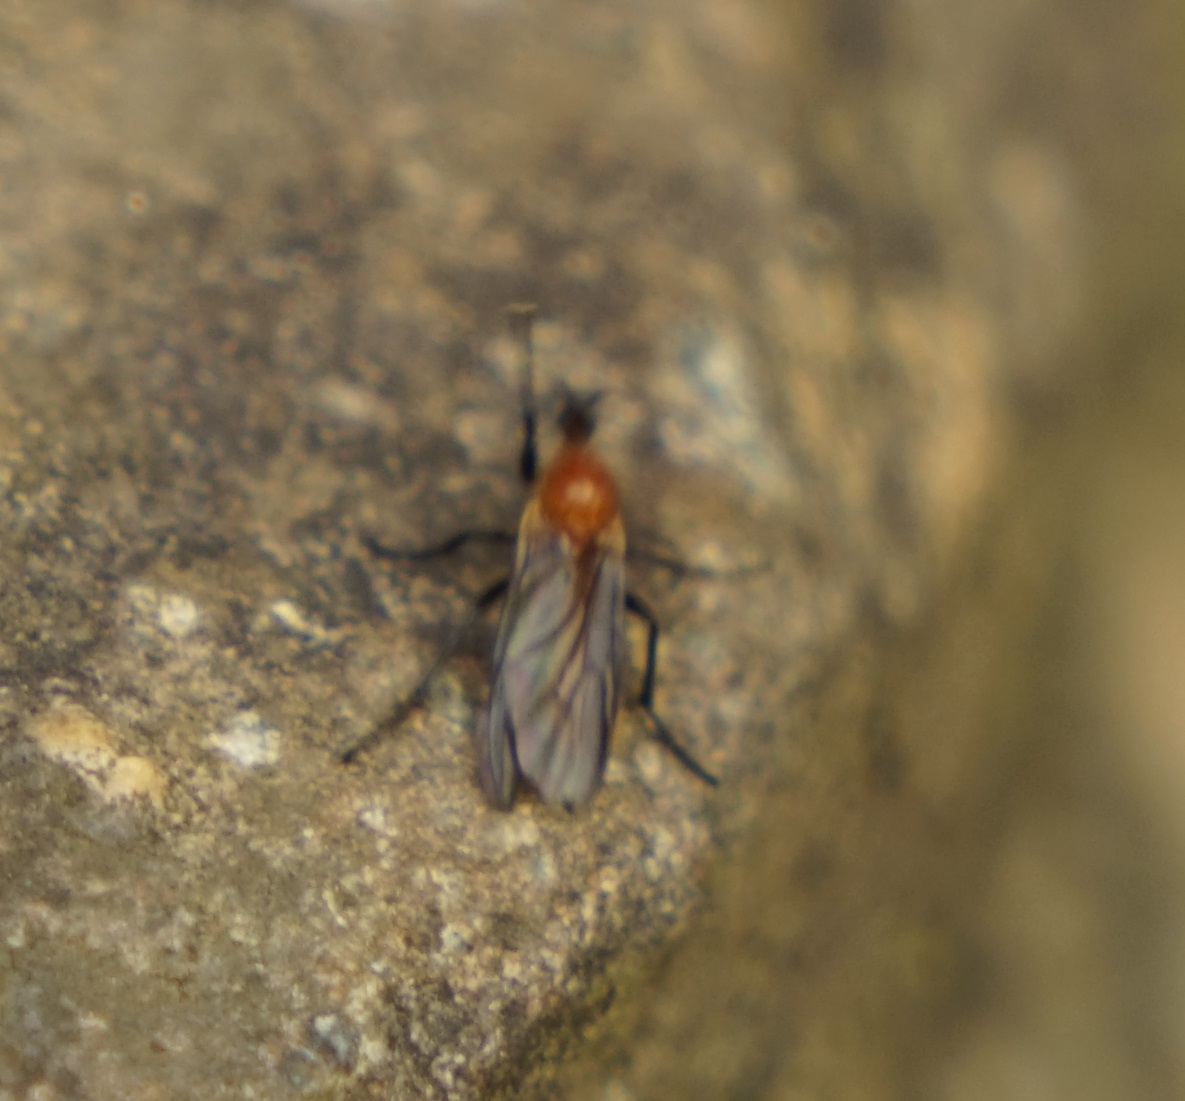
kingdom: Animalia
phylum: Arthropoda
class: Insecta
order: Diptera
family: Bibionidae
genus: Bibio
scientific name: Bibio imitator
